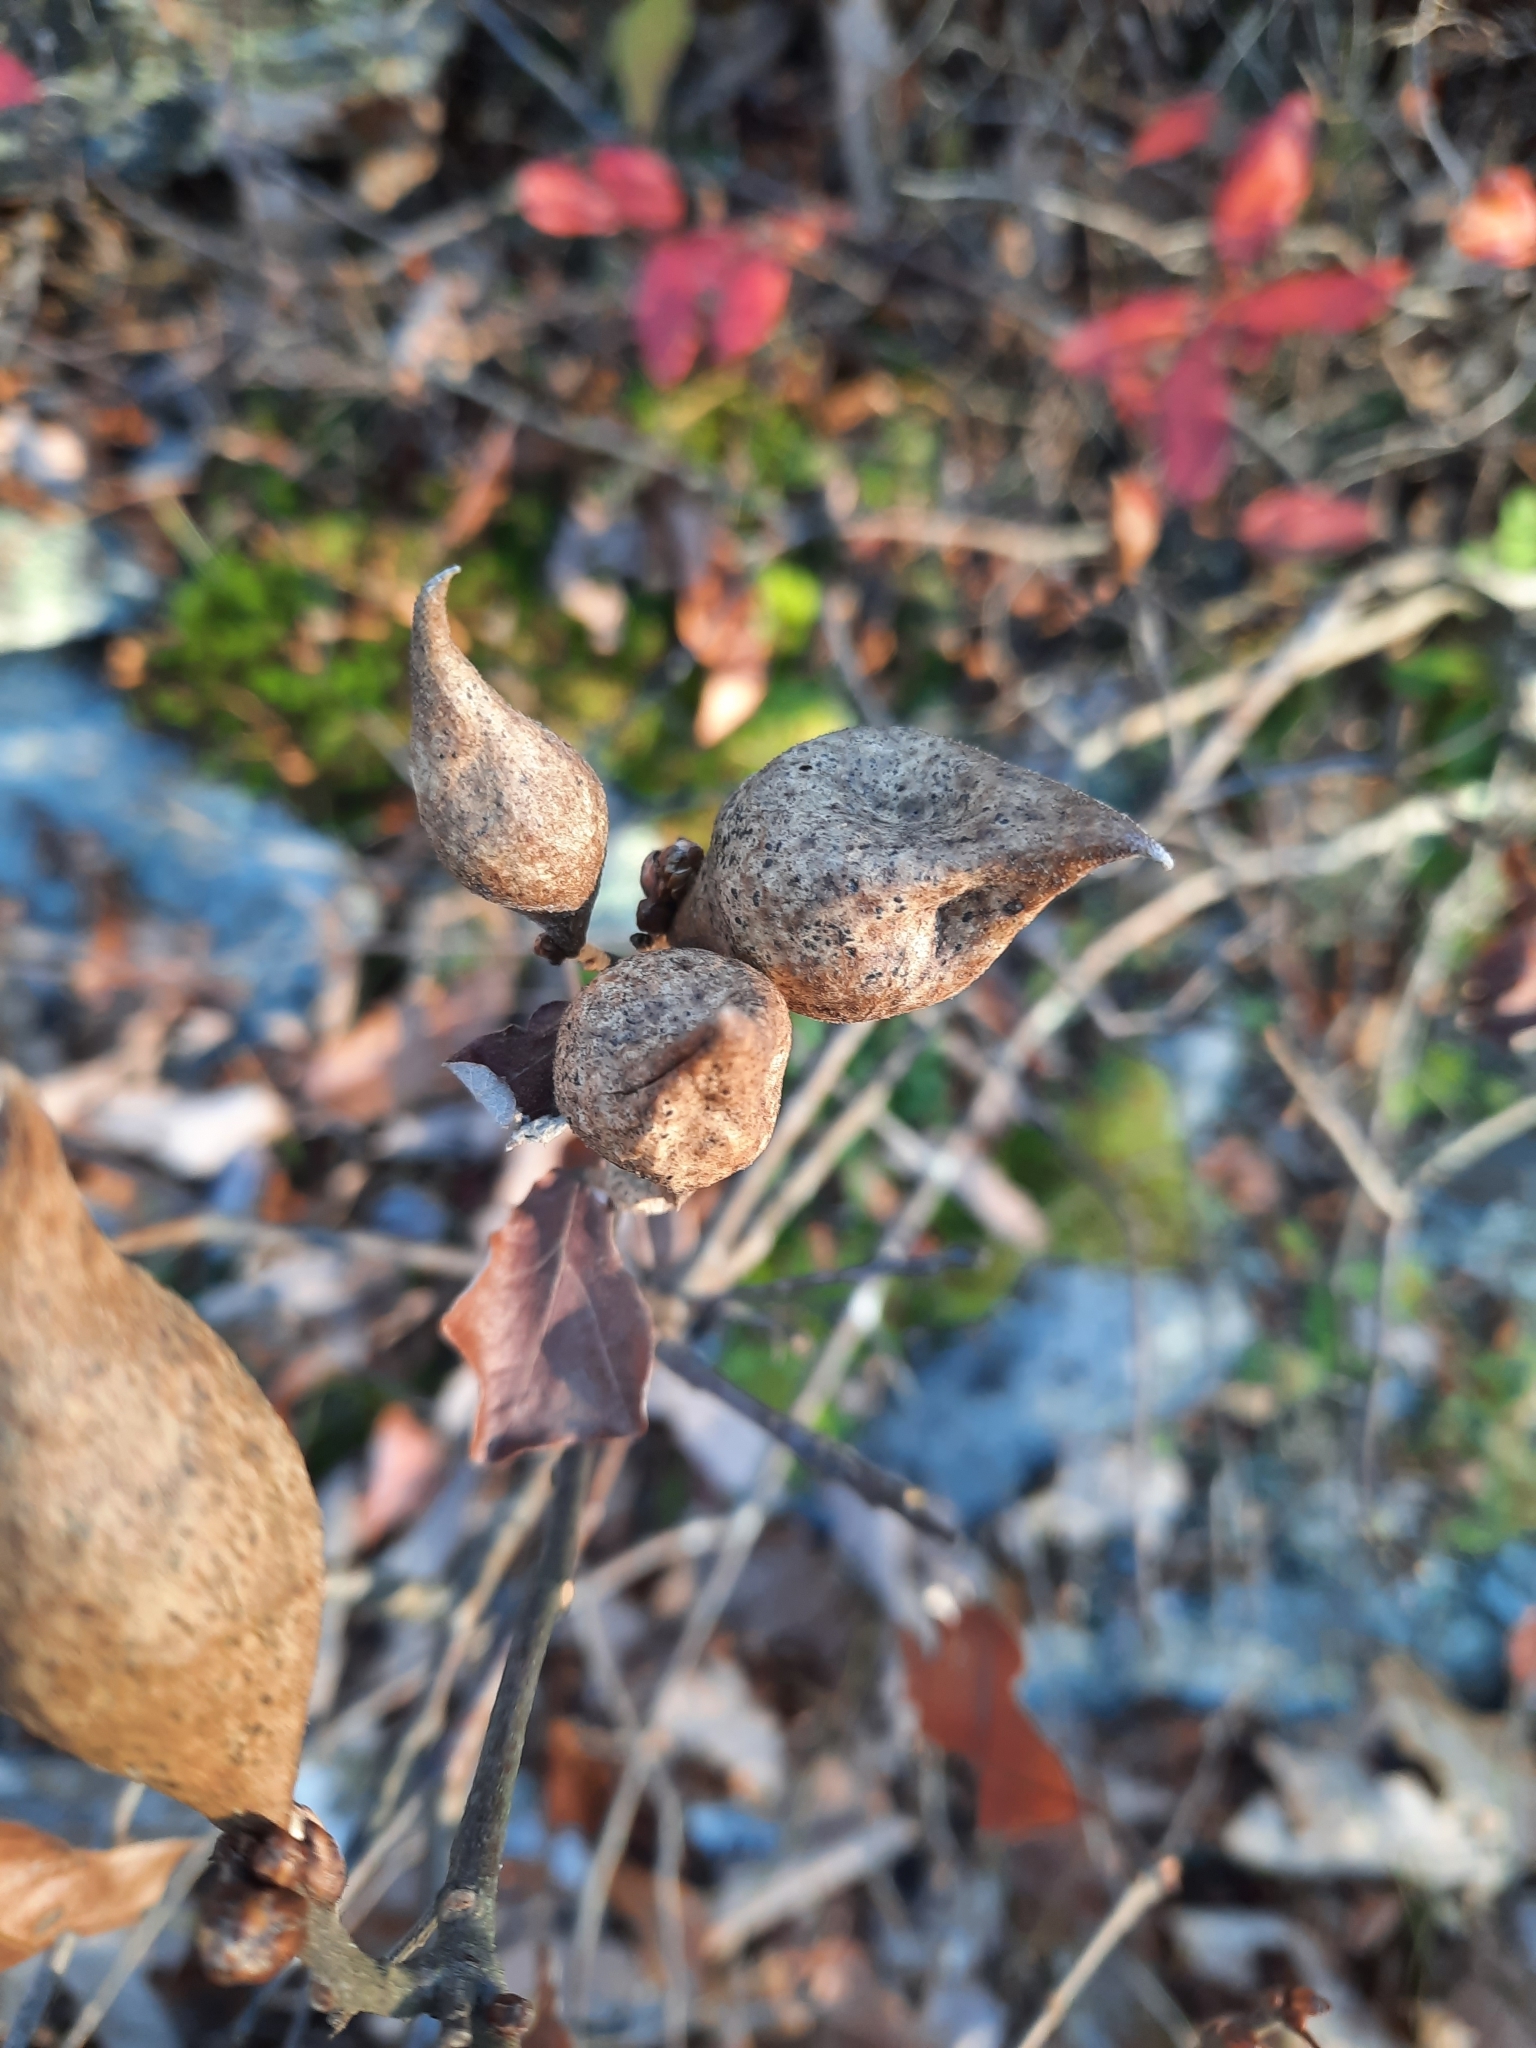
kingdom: Animalia
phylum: Arthropoda
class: Insecta
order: Hymenoptera
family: Cynipidae
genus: Amphibolips
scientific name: Amphibolips
